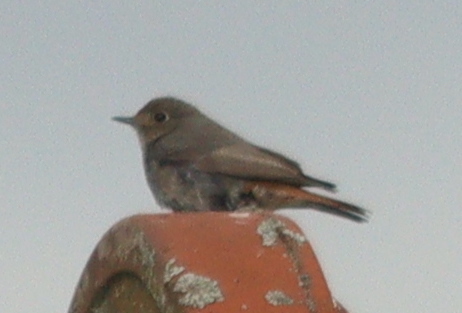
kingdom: Animalia
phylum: Chordata
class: Aves
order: Passeriformes
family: Muscicapidae
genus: Phoenicurus
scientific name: Phoenicurus ochruros
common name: Black redstart
